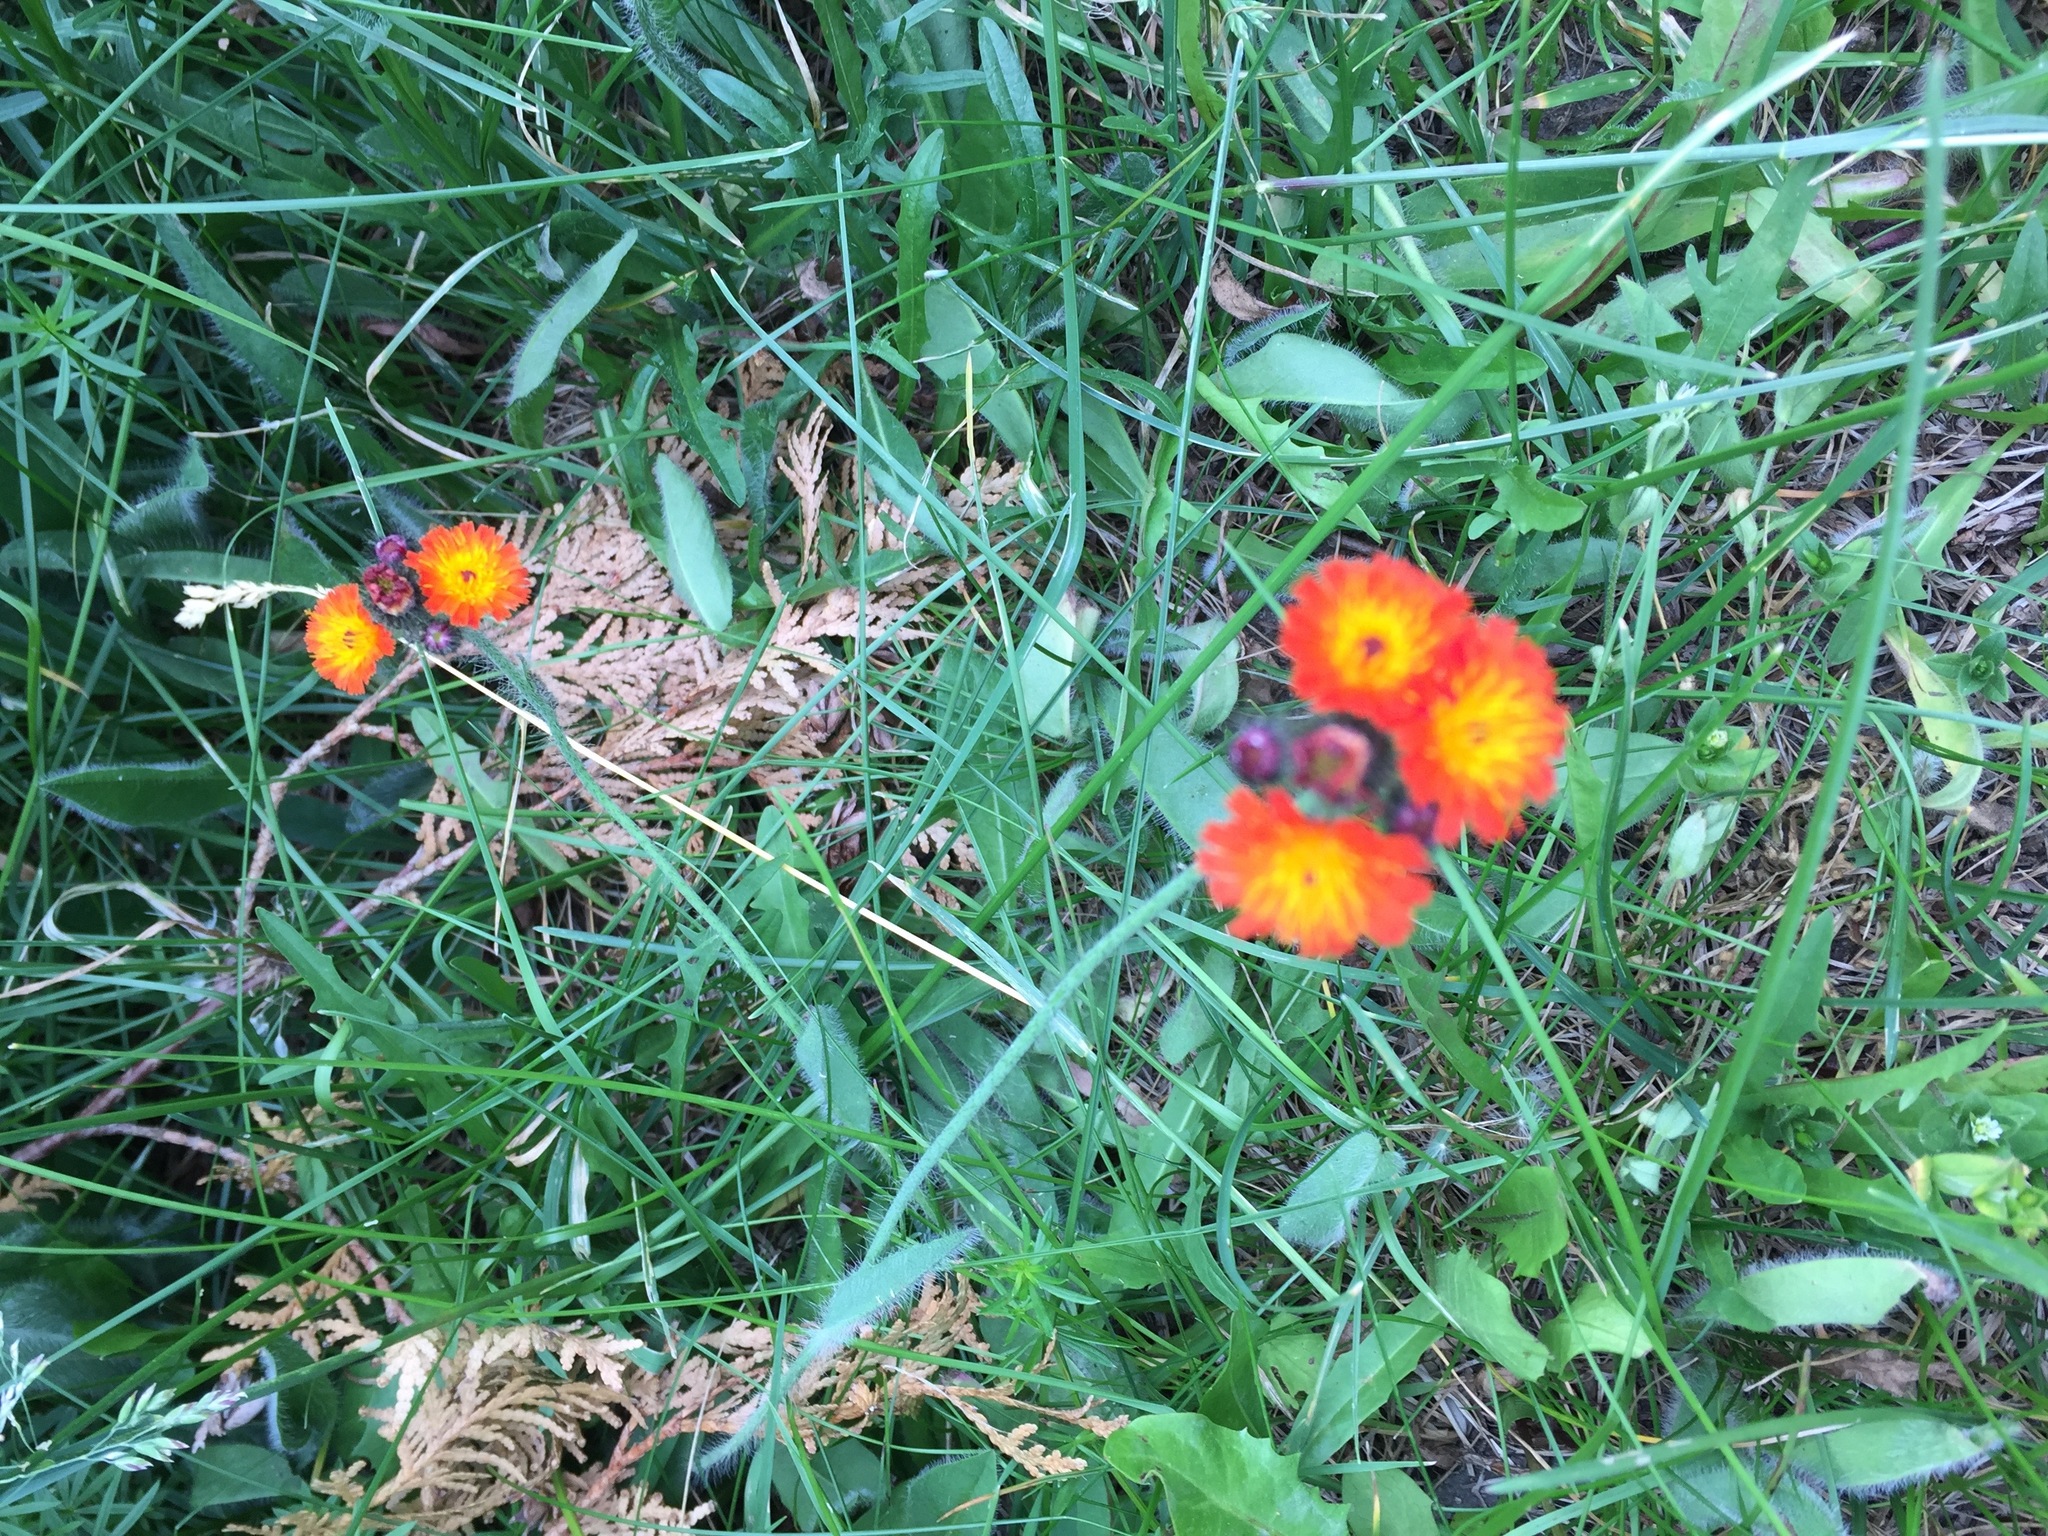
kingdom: Plantae
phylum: Tracheophyta
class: Magnoliopsida
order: Asterales
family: Asteraceae
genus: Pilosella
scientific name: Pilosella aurantiaca
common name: Fox-and-cubs
